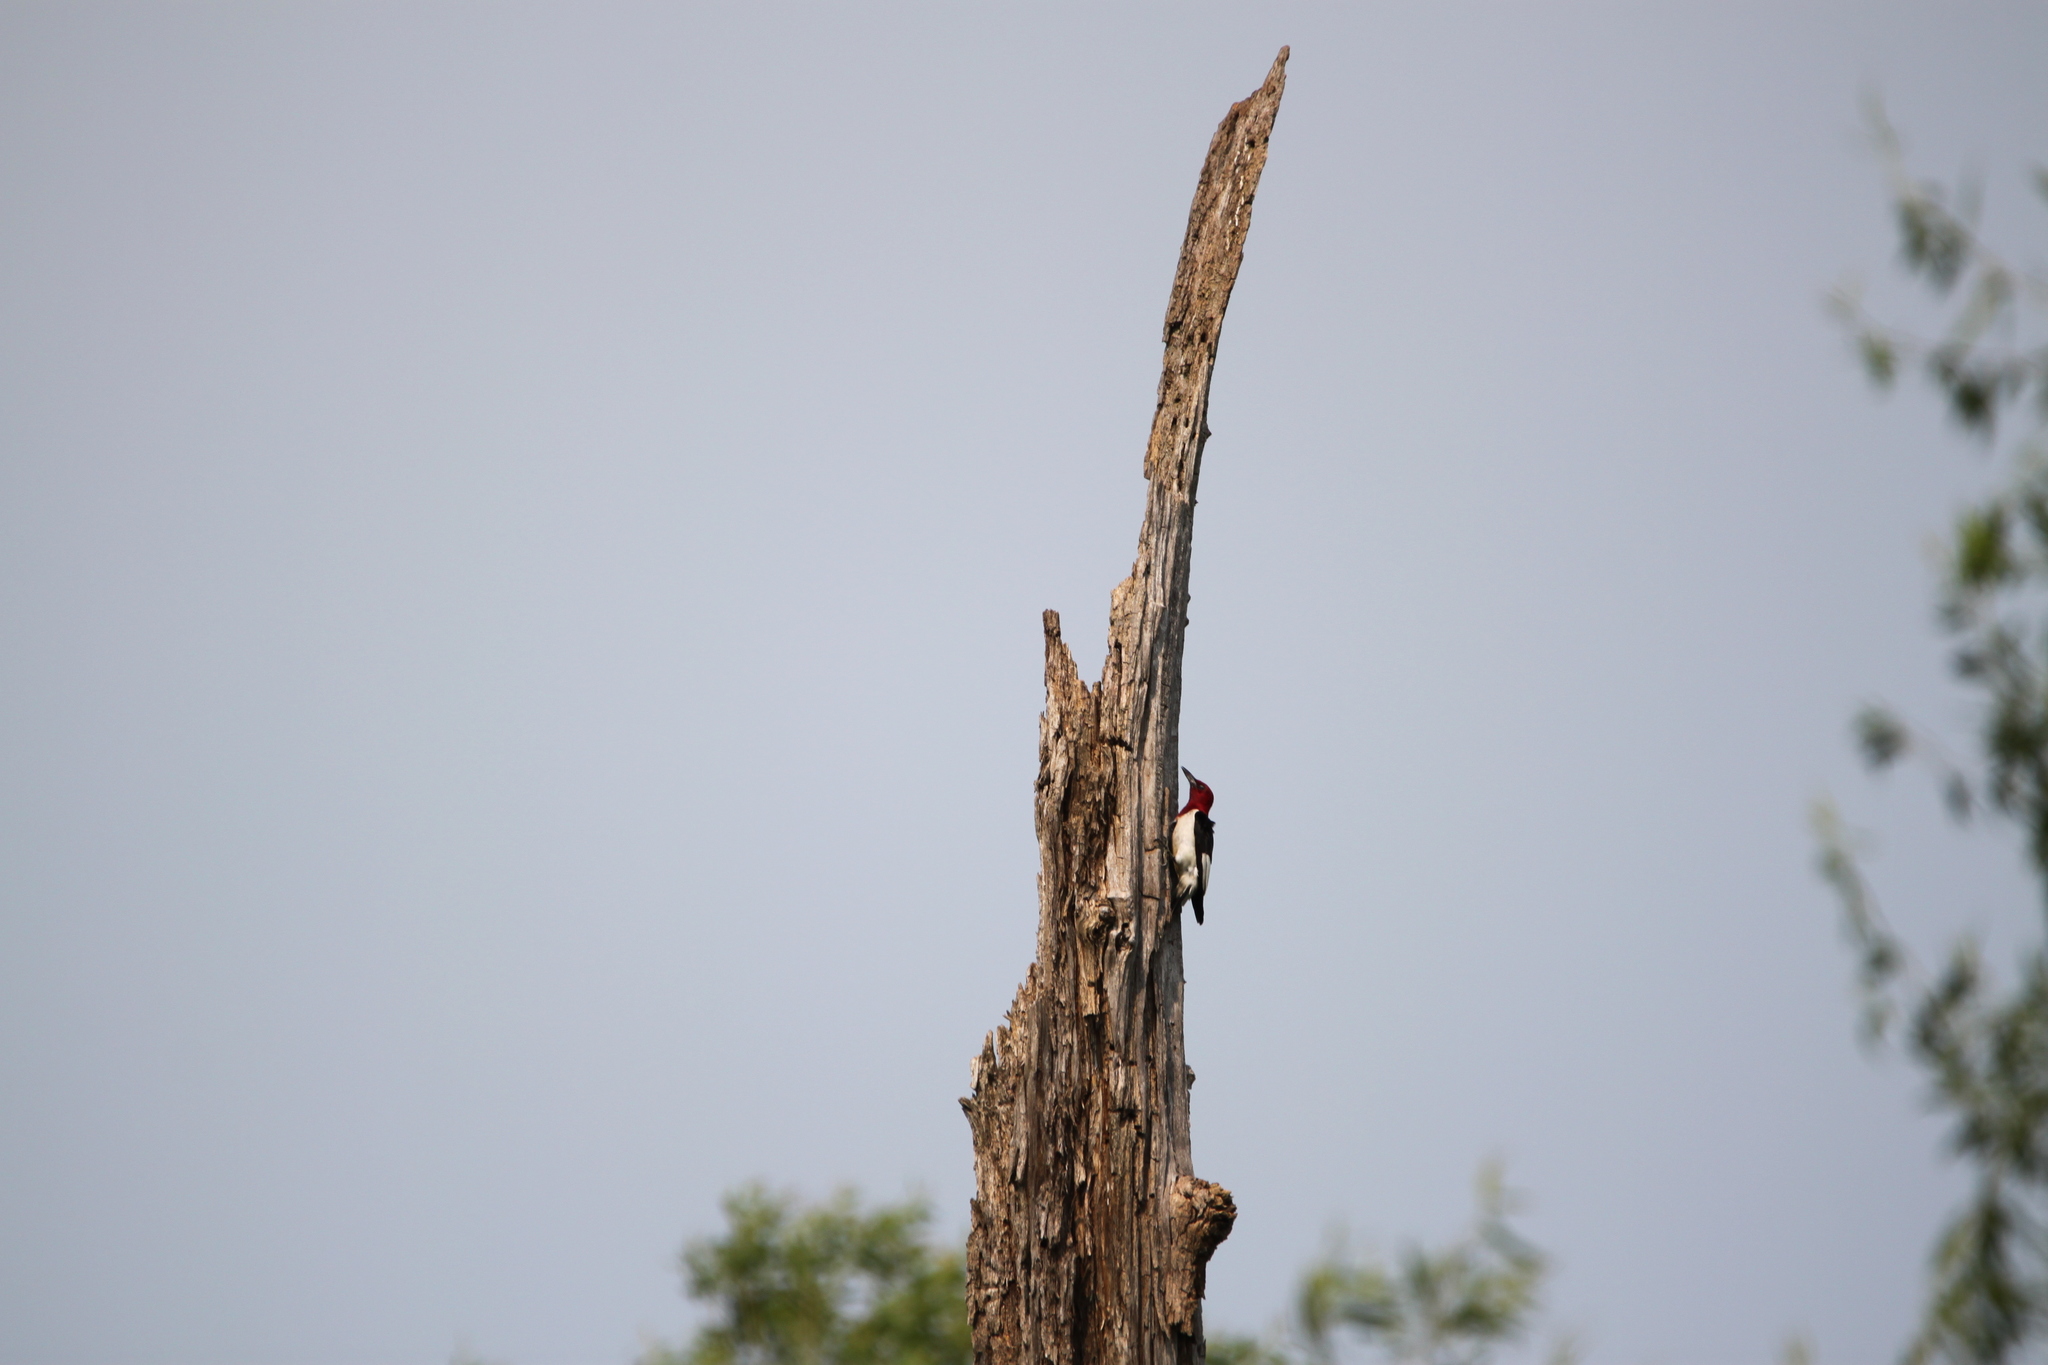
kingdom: Animalia
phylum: Chordata
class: Aves
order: Piciformes
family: Picidae
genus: Melanerpes
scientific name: Melanerpes erythrocephalus
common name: Red-headed woodpecker
